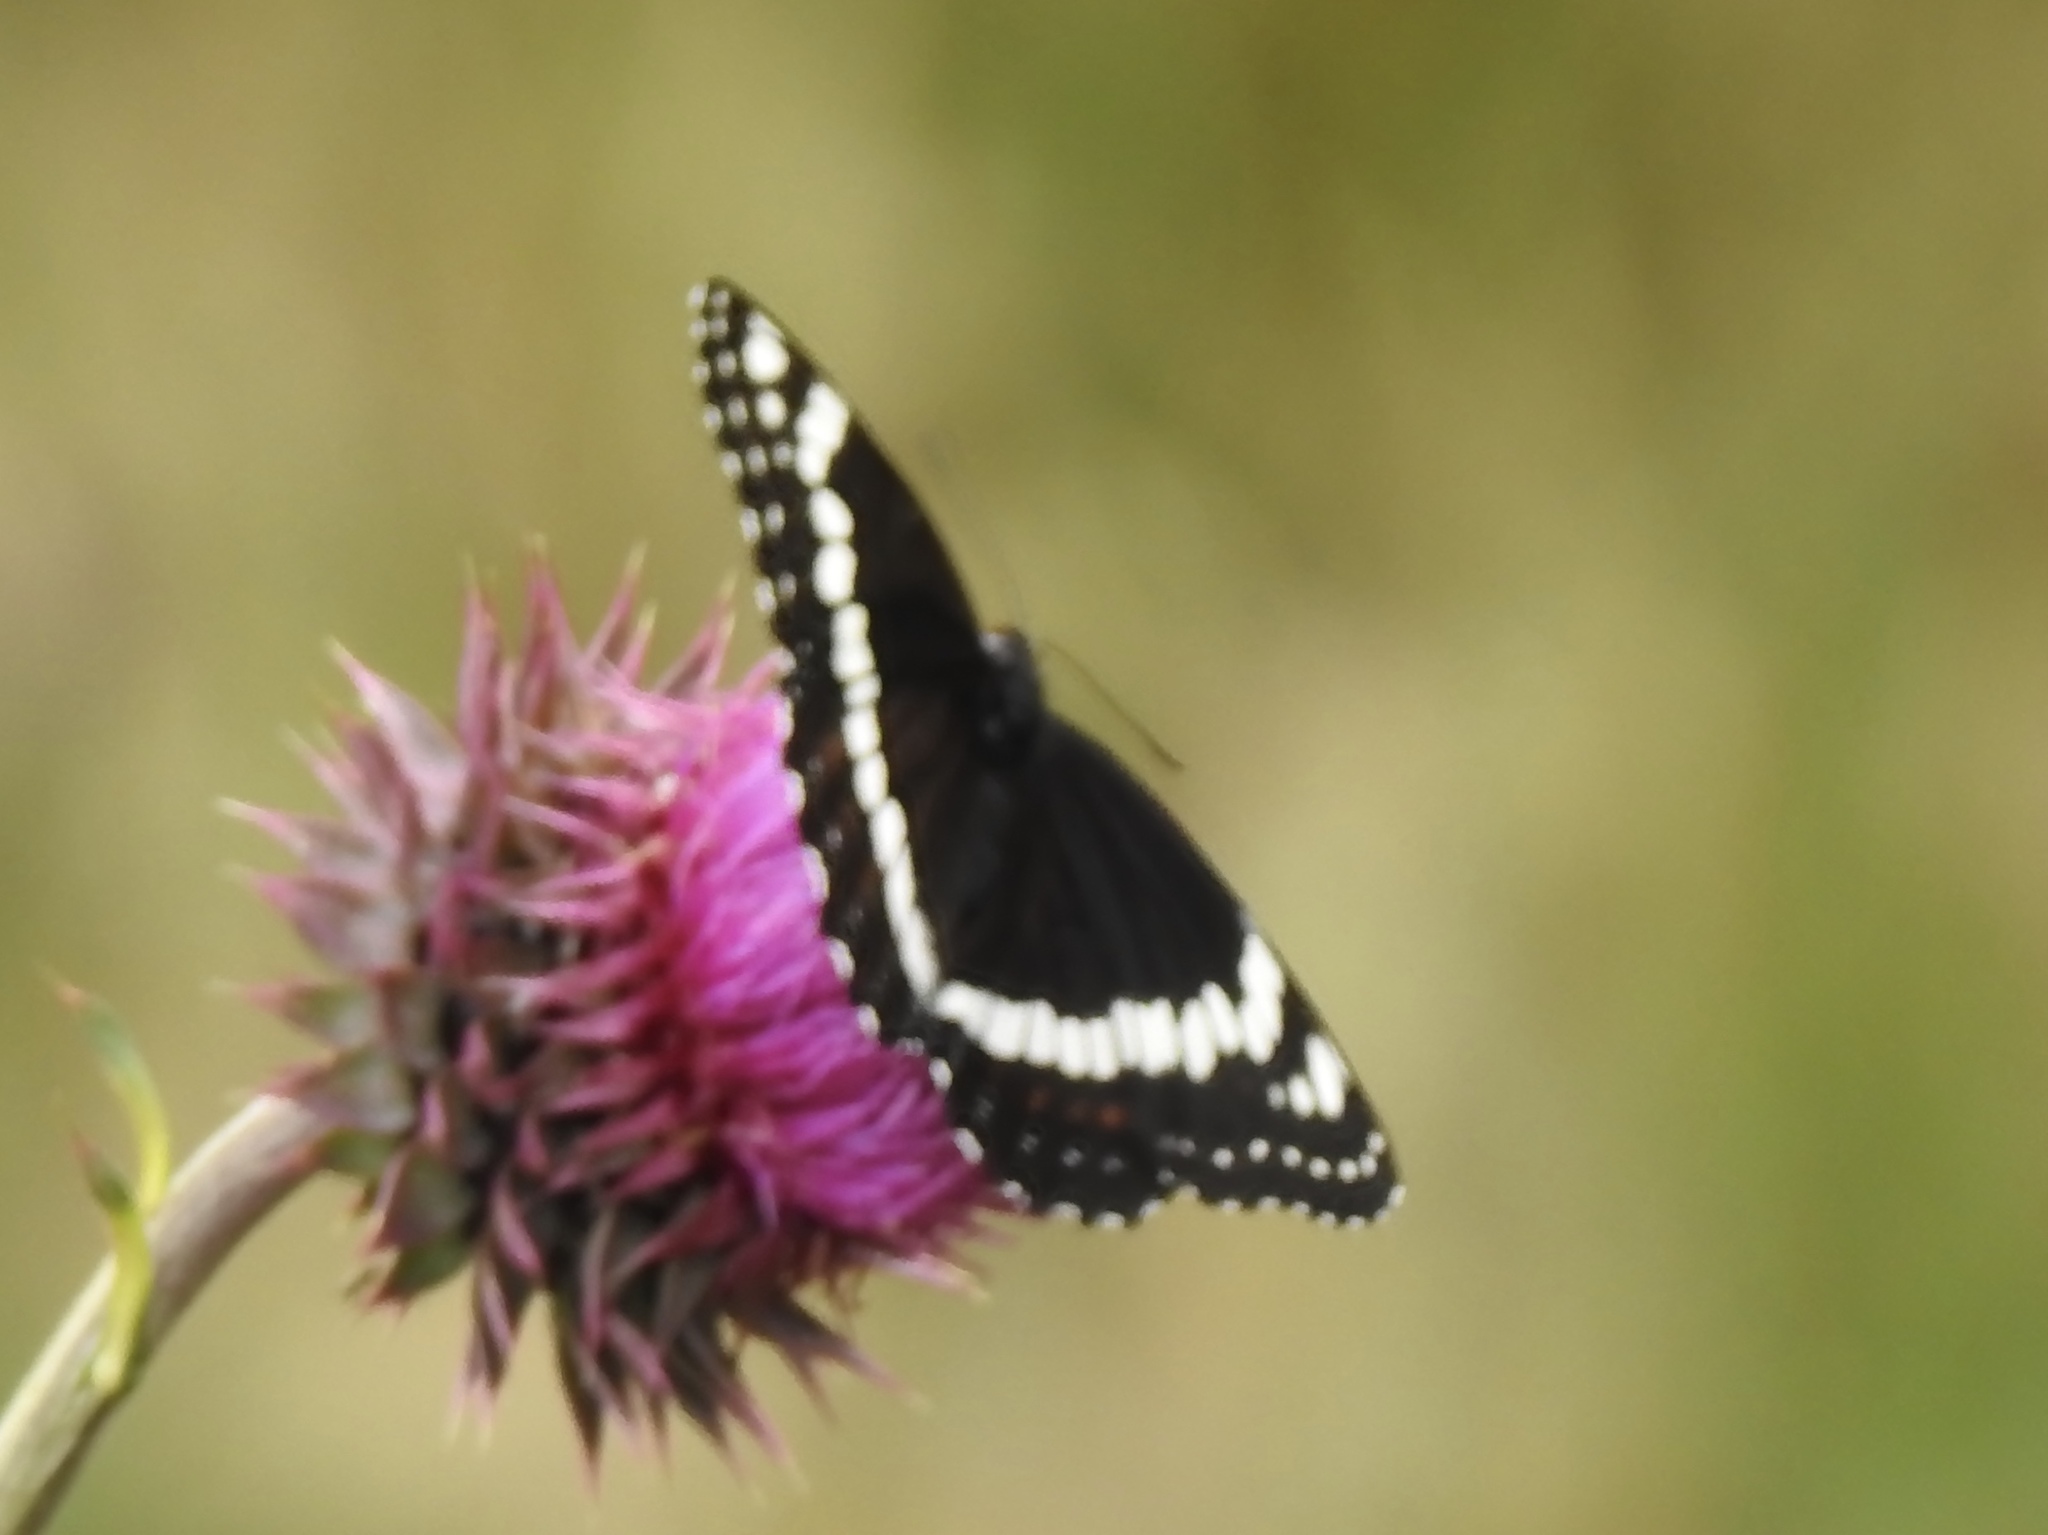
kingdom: Animalia
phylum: Arthropoda
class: Insecta
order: Lepidoptera
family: Nymphalidae
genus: Limenitis
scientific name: Limenitis weidemeyerii
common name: Weidemeyer's admiral
